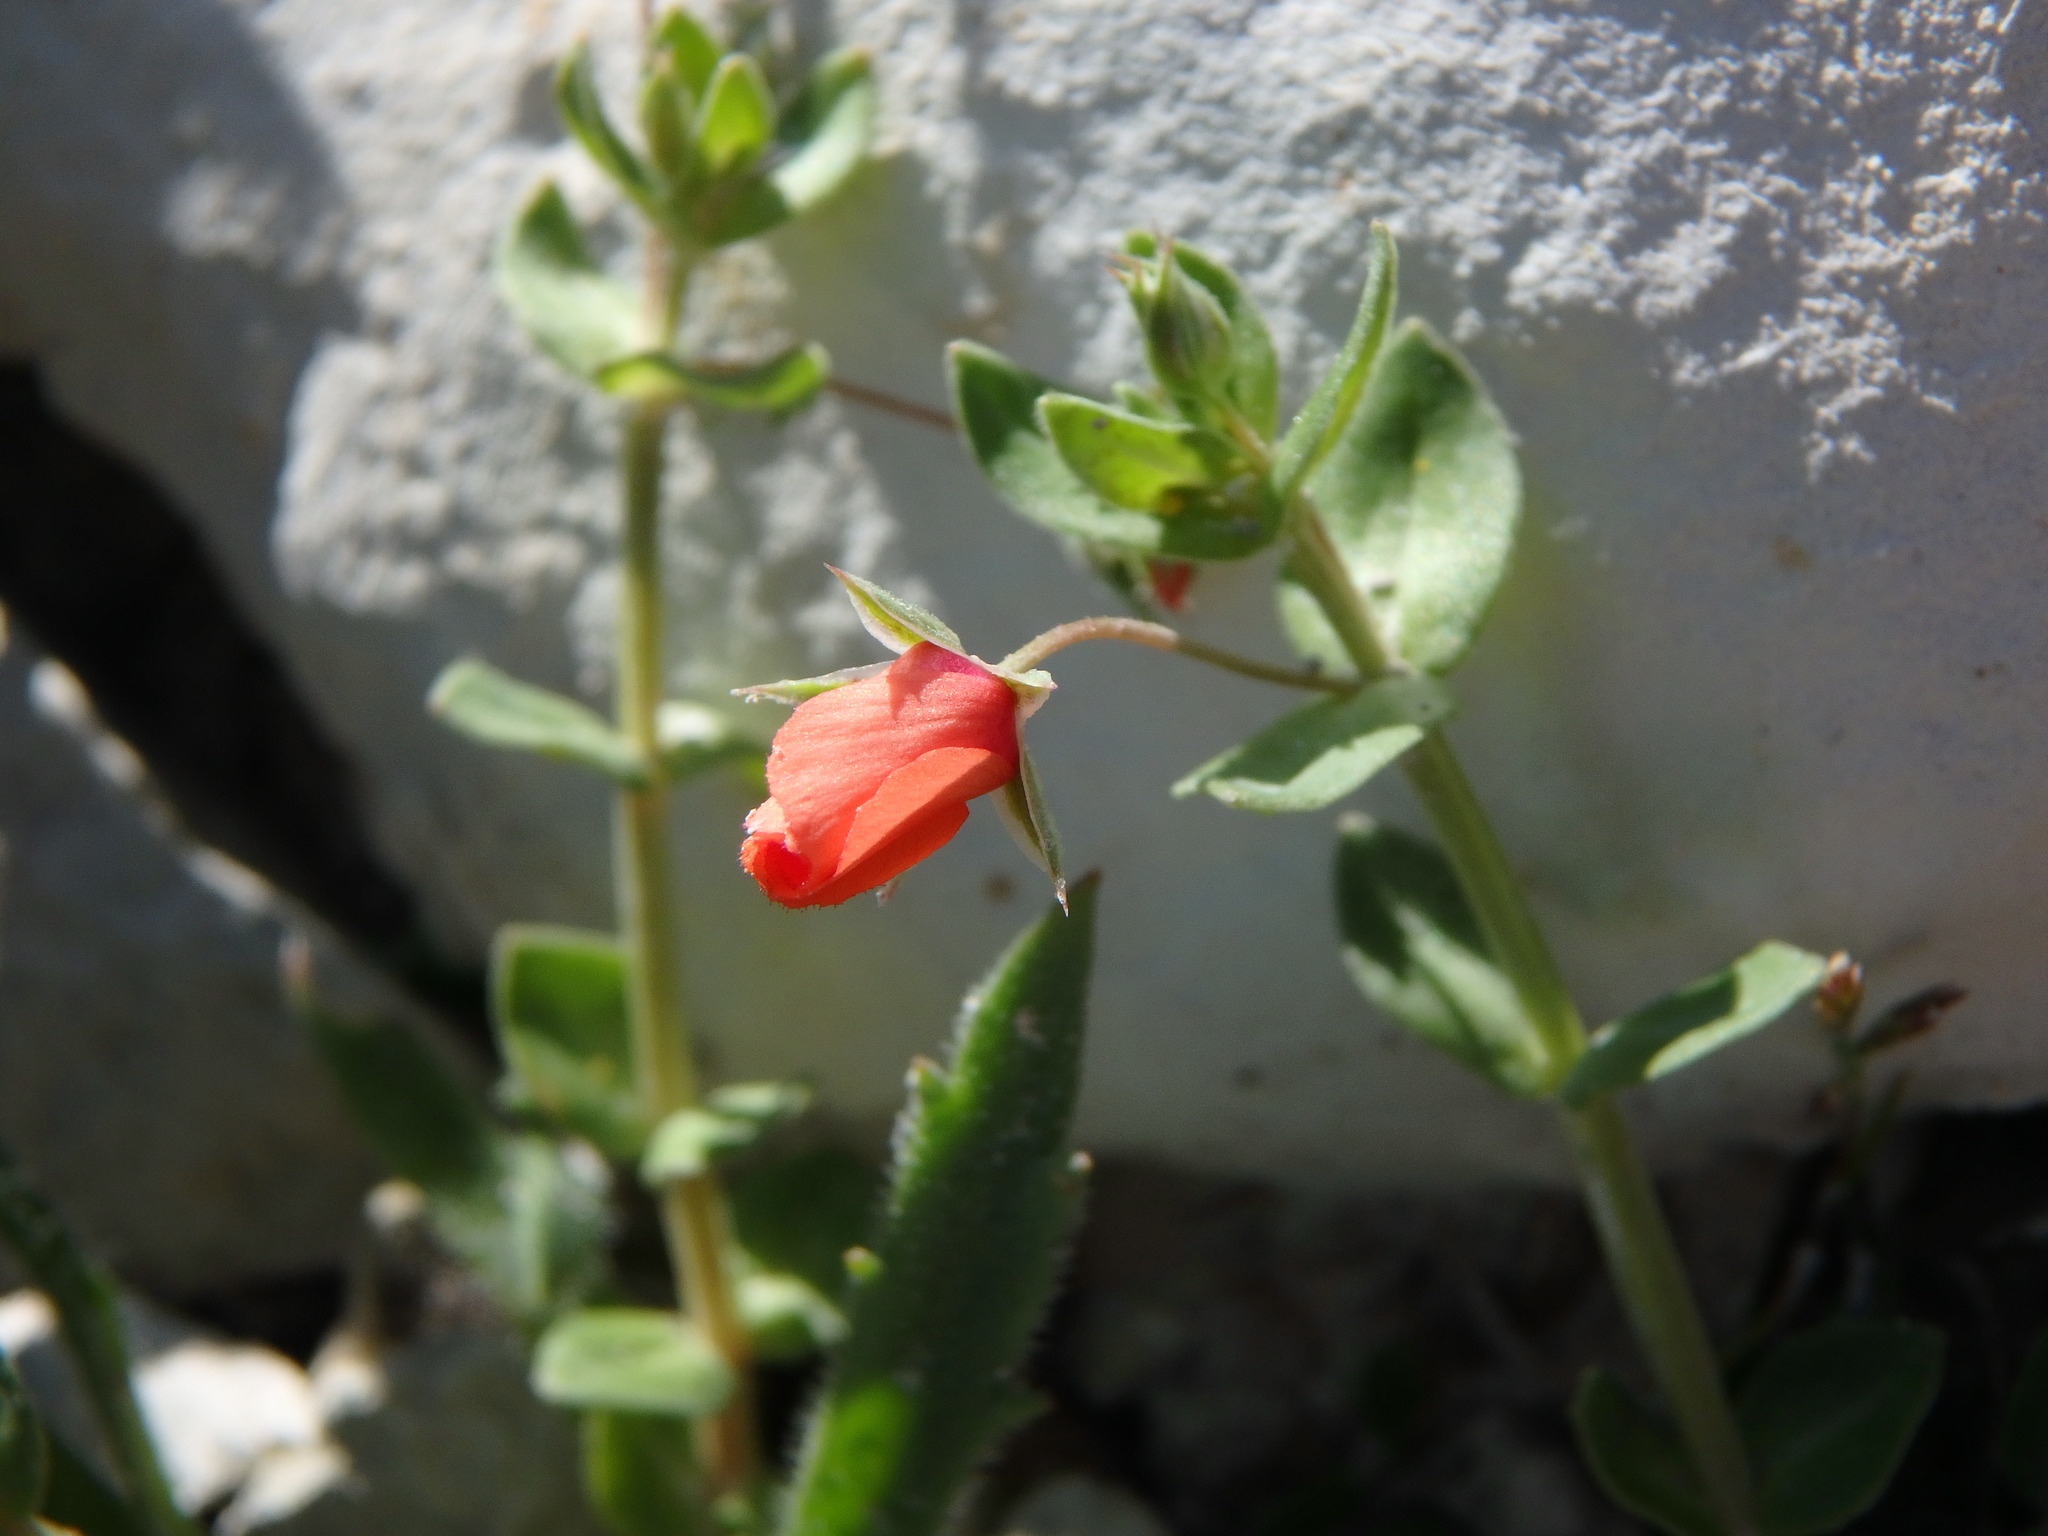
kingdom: Plantae
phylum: Tracheophyta
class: Magnoliopsida
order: Ericales
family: Primulaceae
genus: Lysimachia
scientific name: Lysimachia arvensis
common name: Scarlet pimpernel
